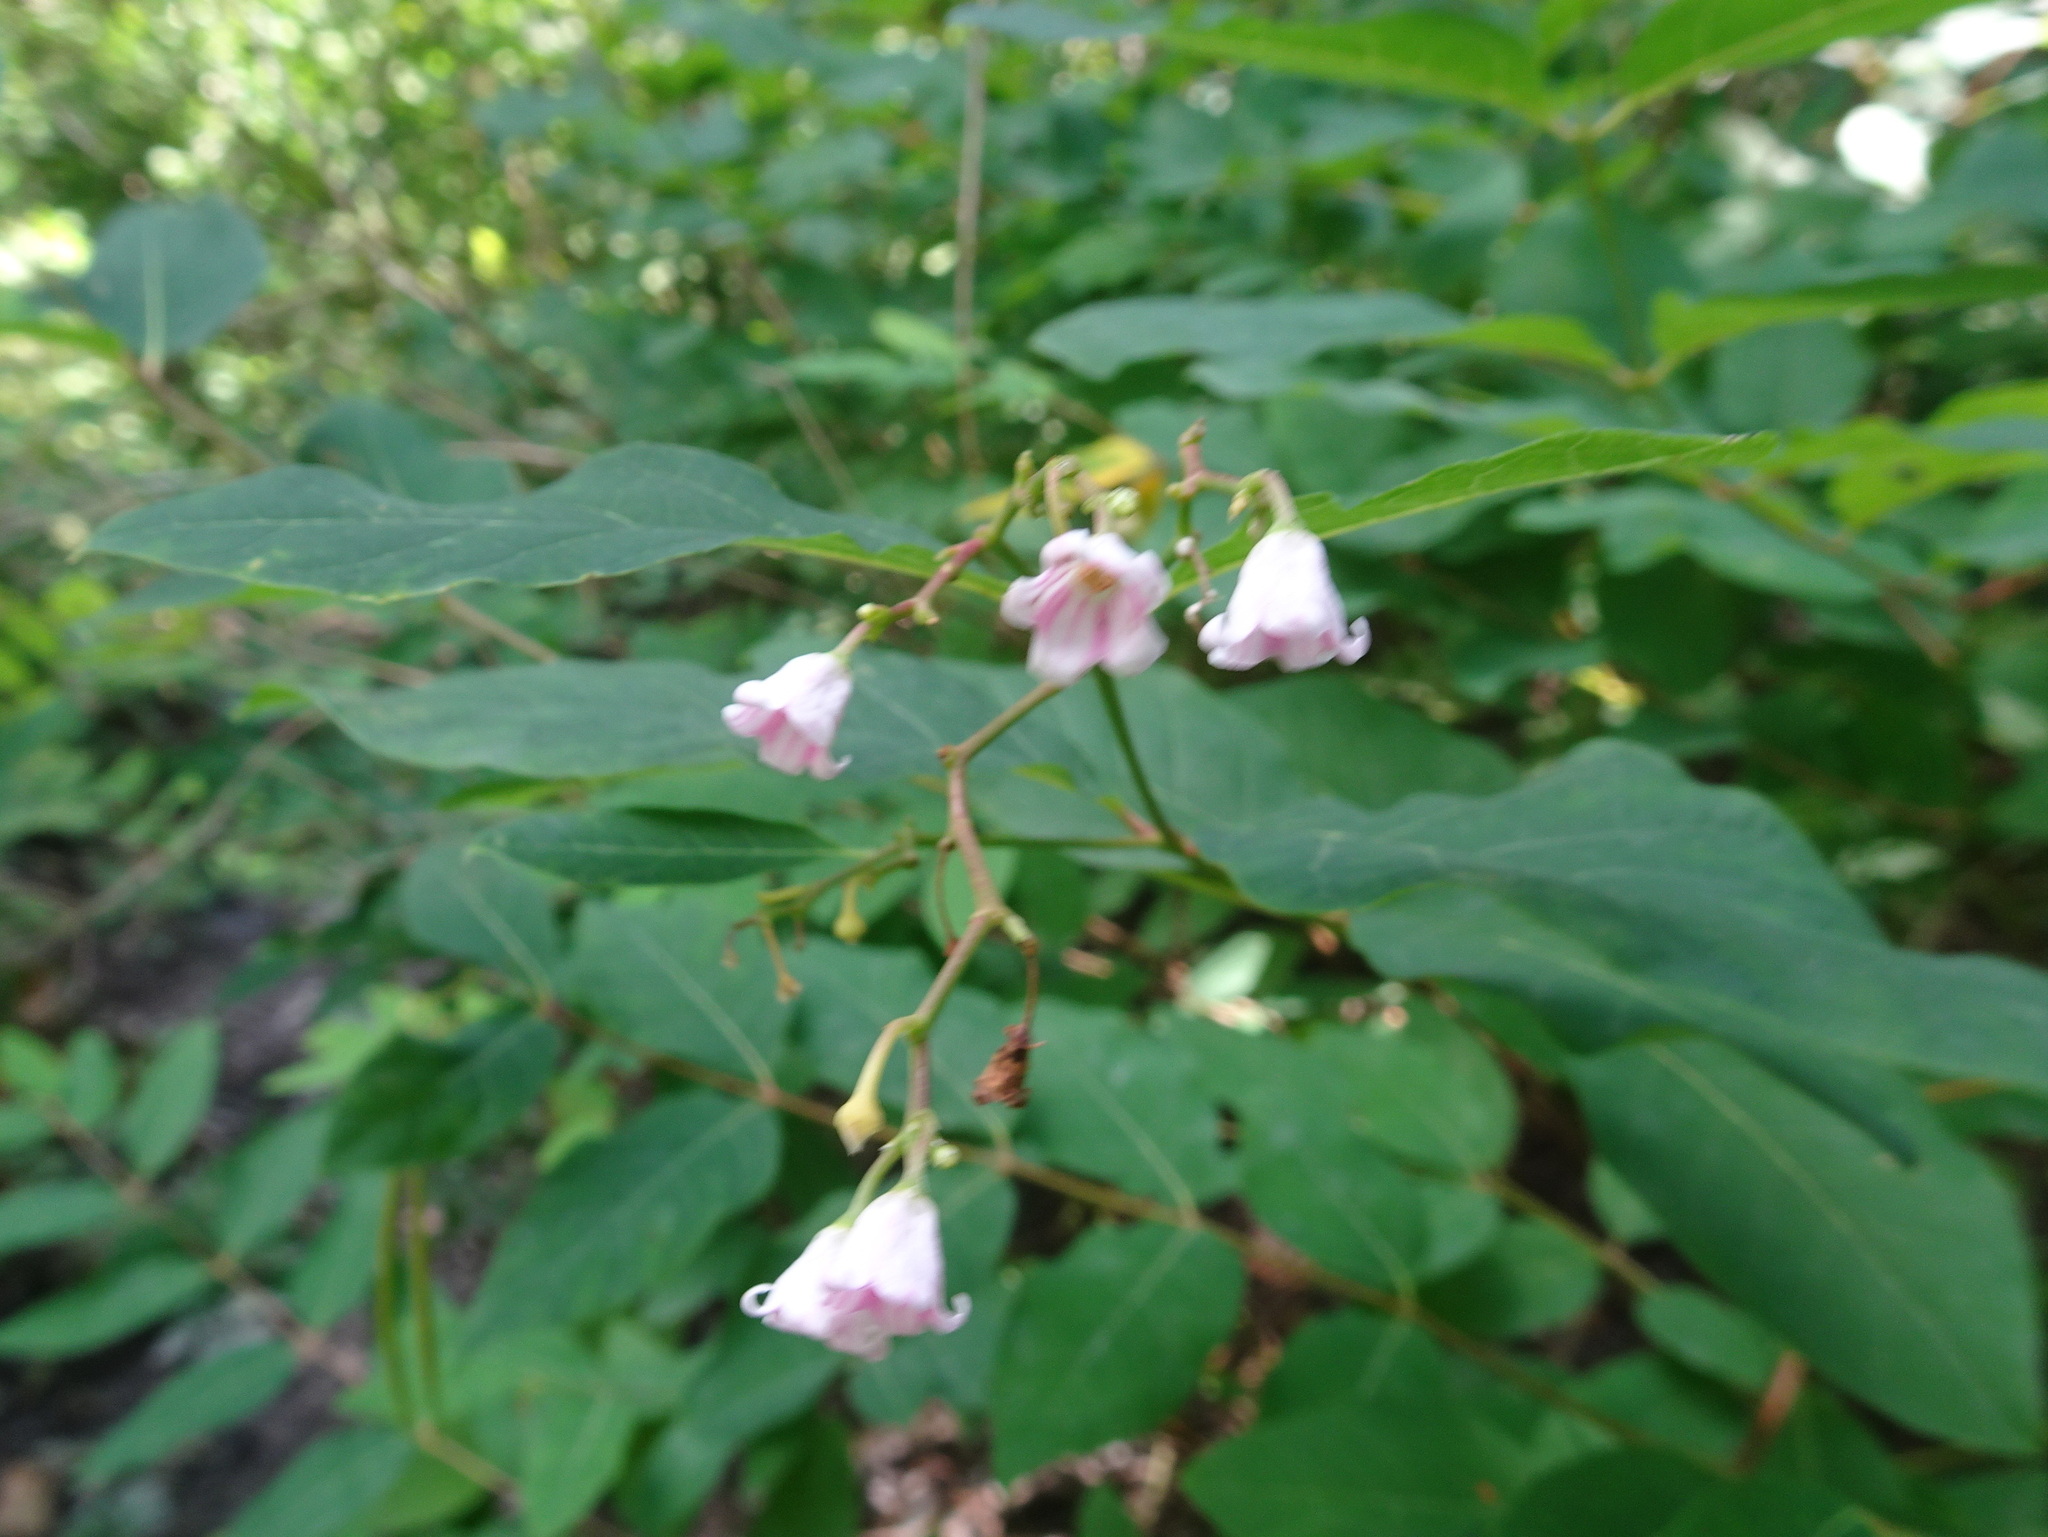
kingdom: Plantae
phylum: Tracheophyta
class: Magnoliopsida
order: Gentianales
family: Apocynaceae
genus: Apocynum
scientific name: Apocynum androsaemifolium
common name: Spreading dogbane
